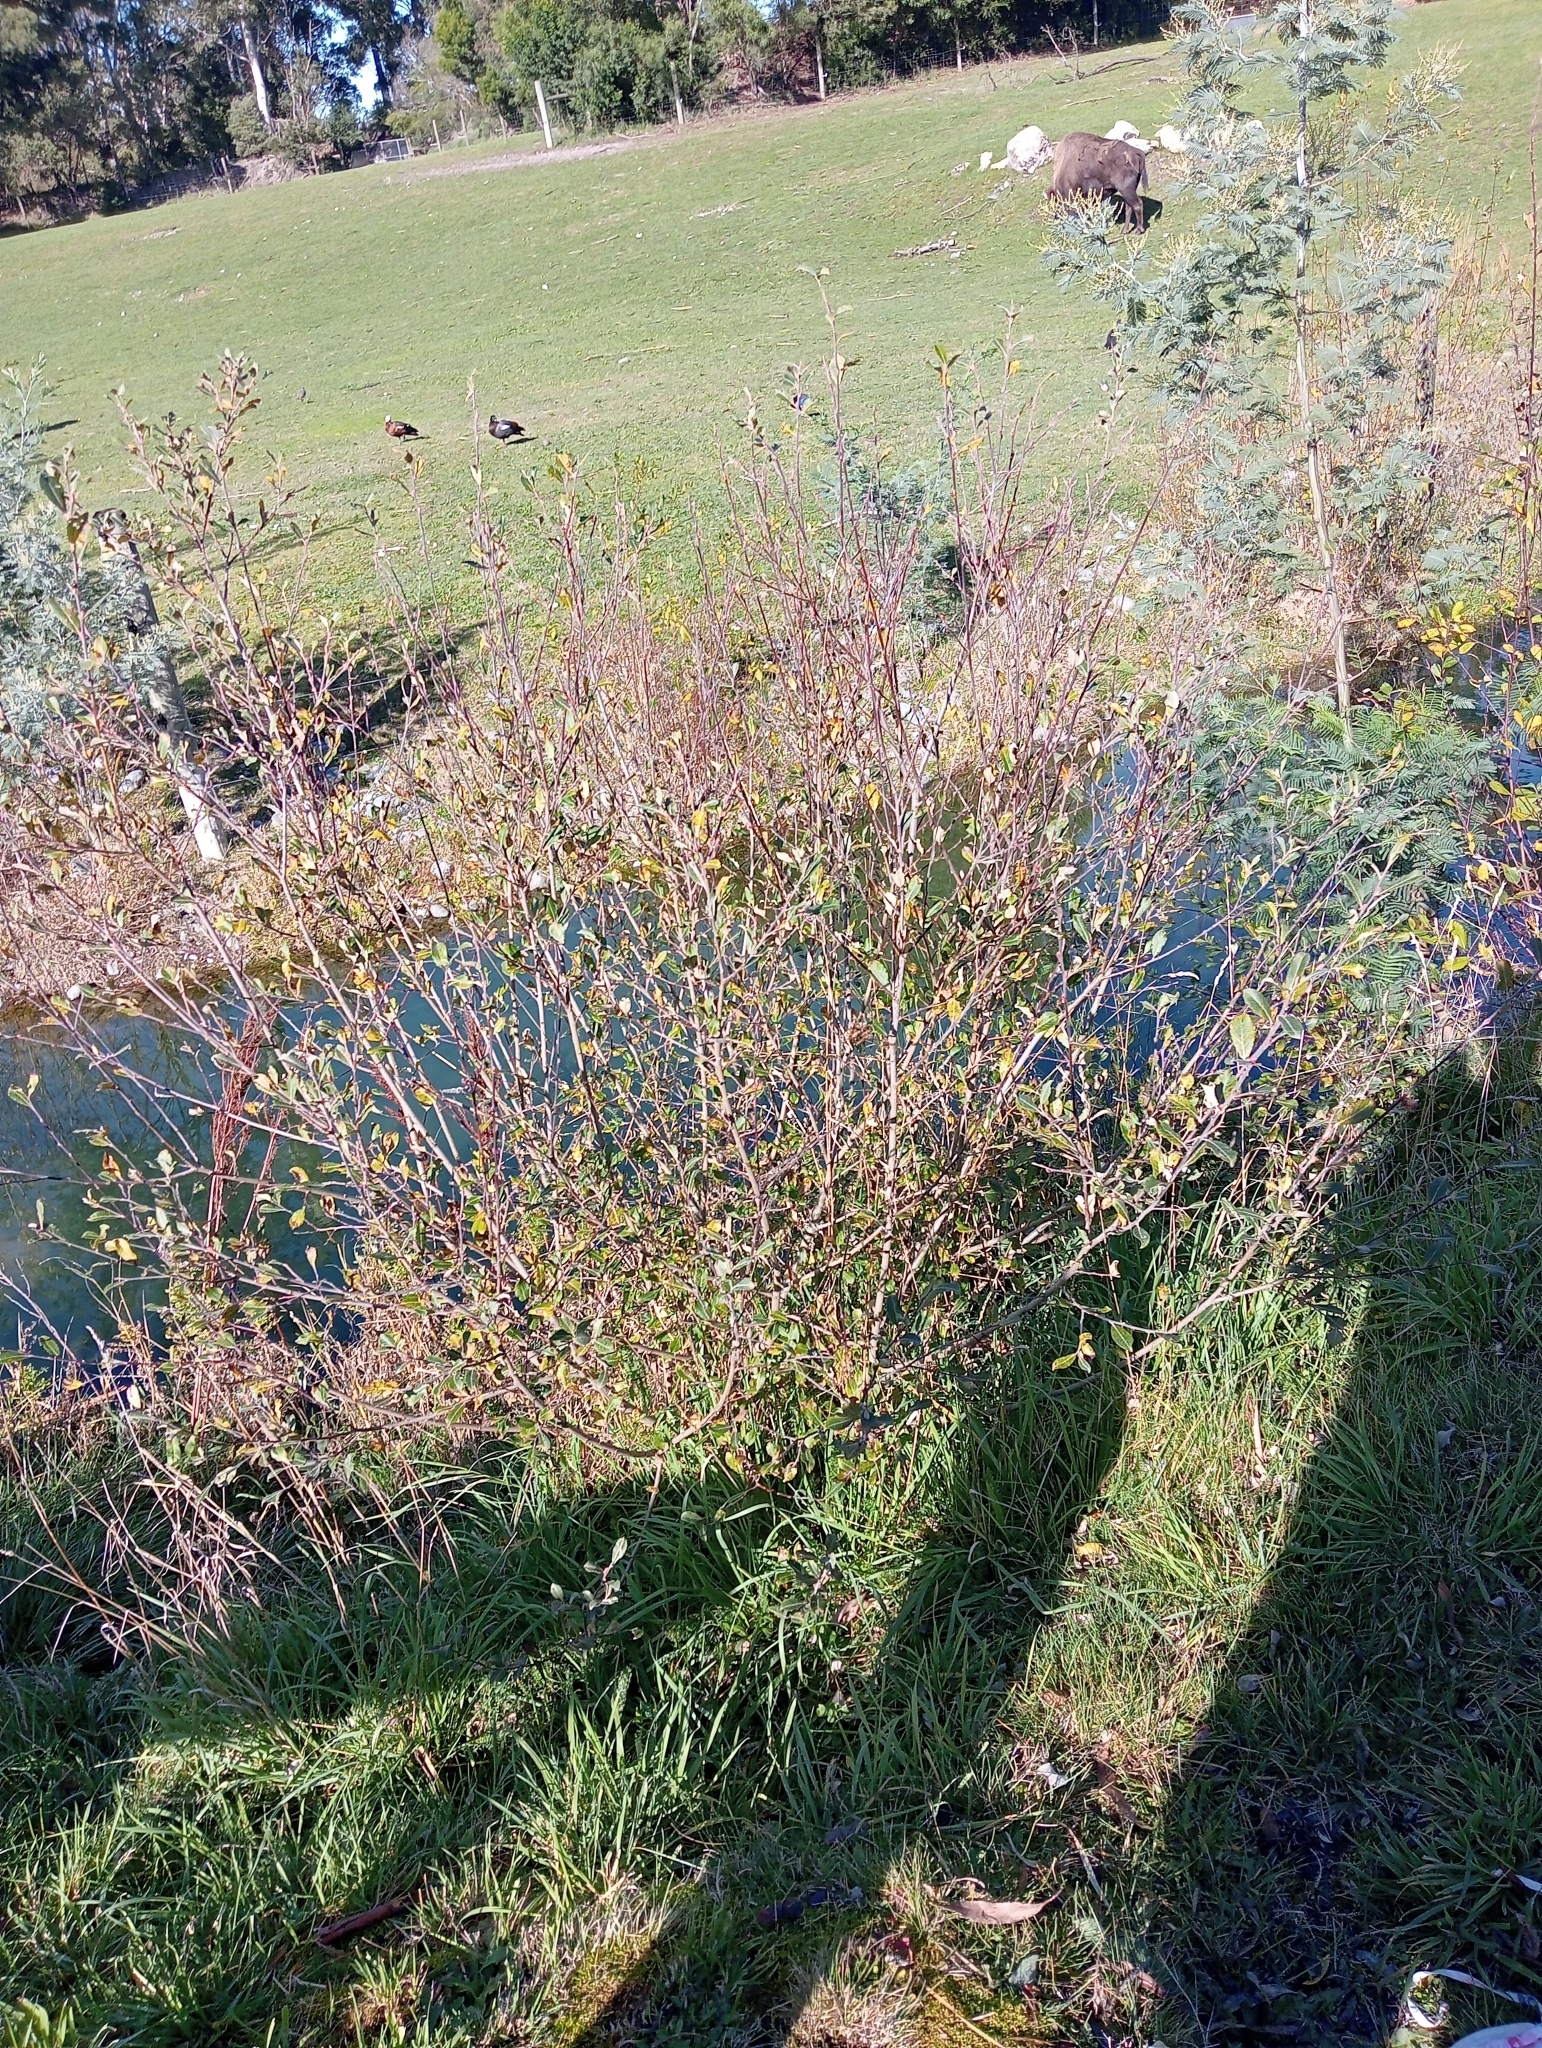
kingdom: Plantae
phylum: Tracheophyta
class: Magnoliopsida
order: Malpighiales
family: Salicaceae
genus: Salix
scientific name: Salix cinerea
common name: Common sallow
